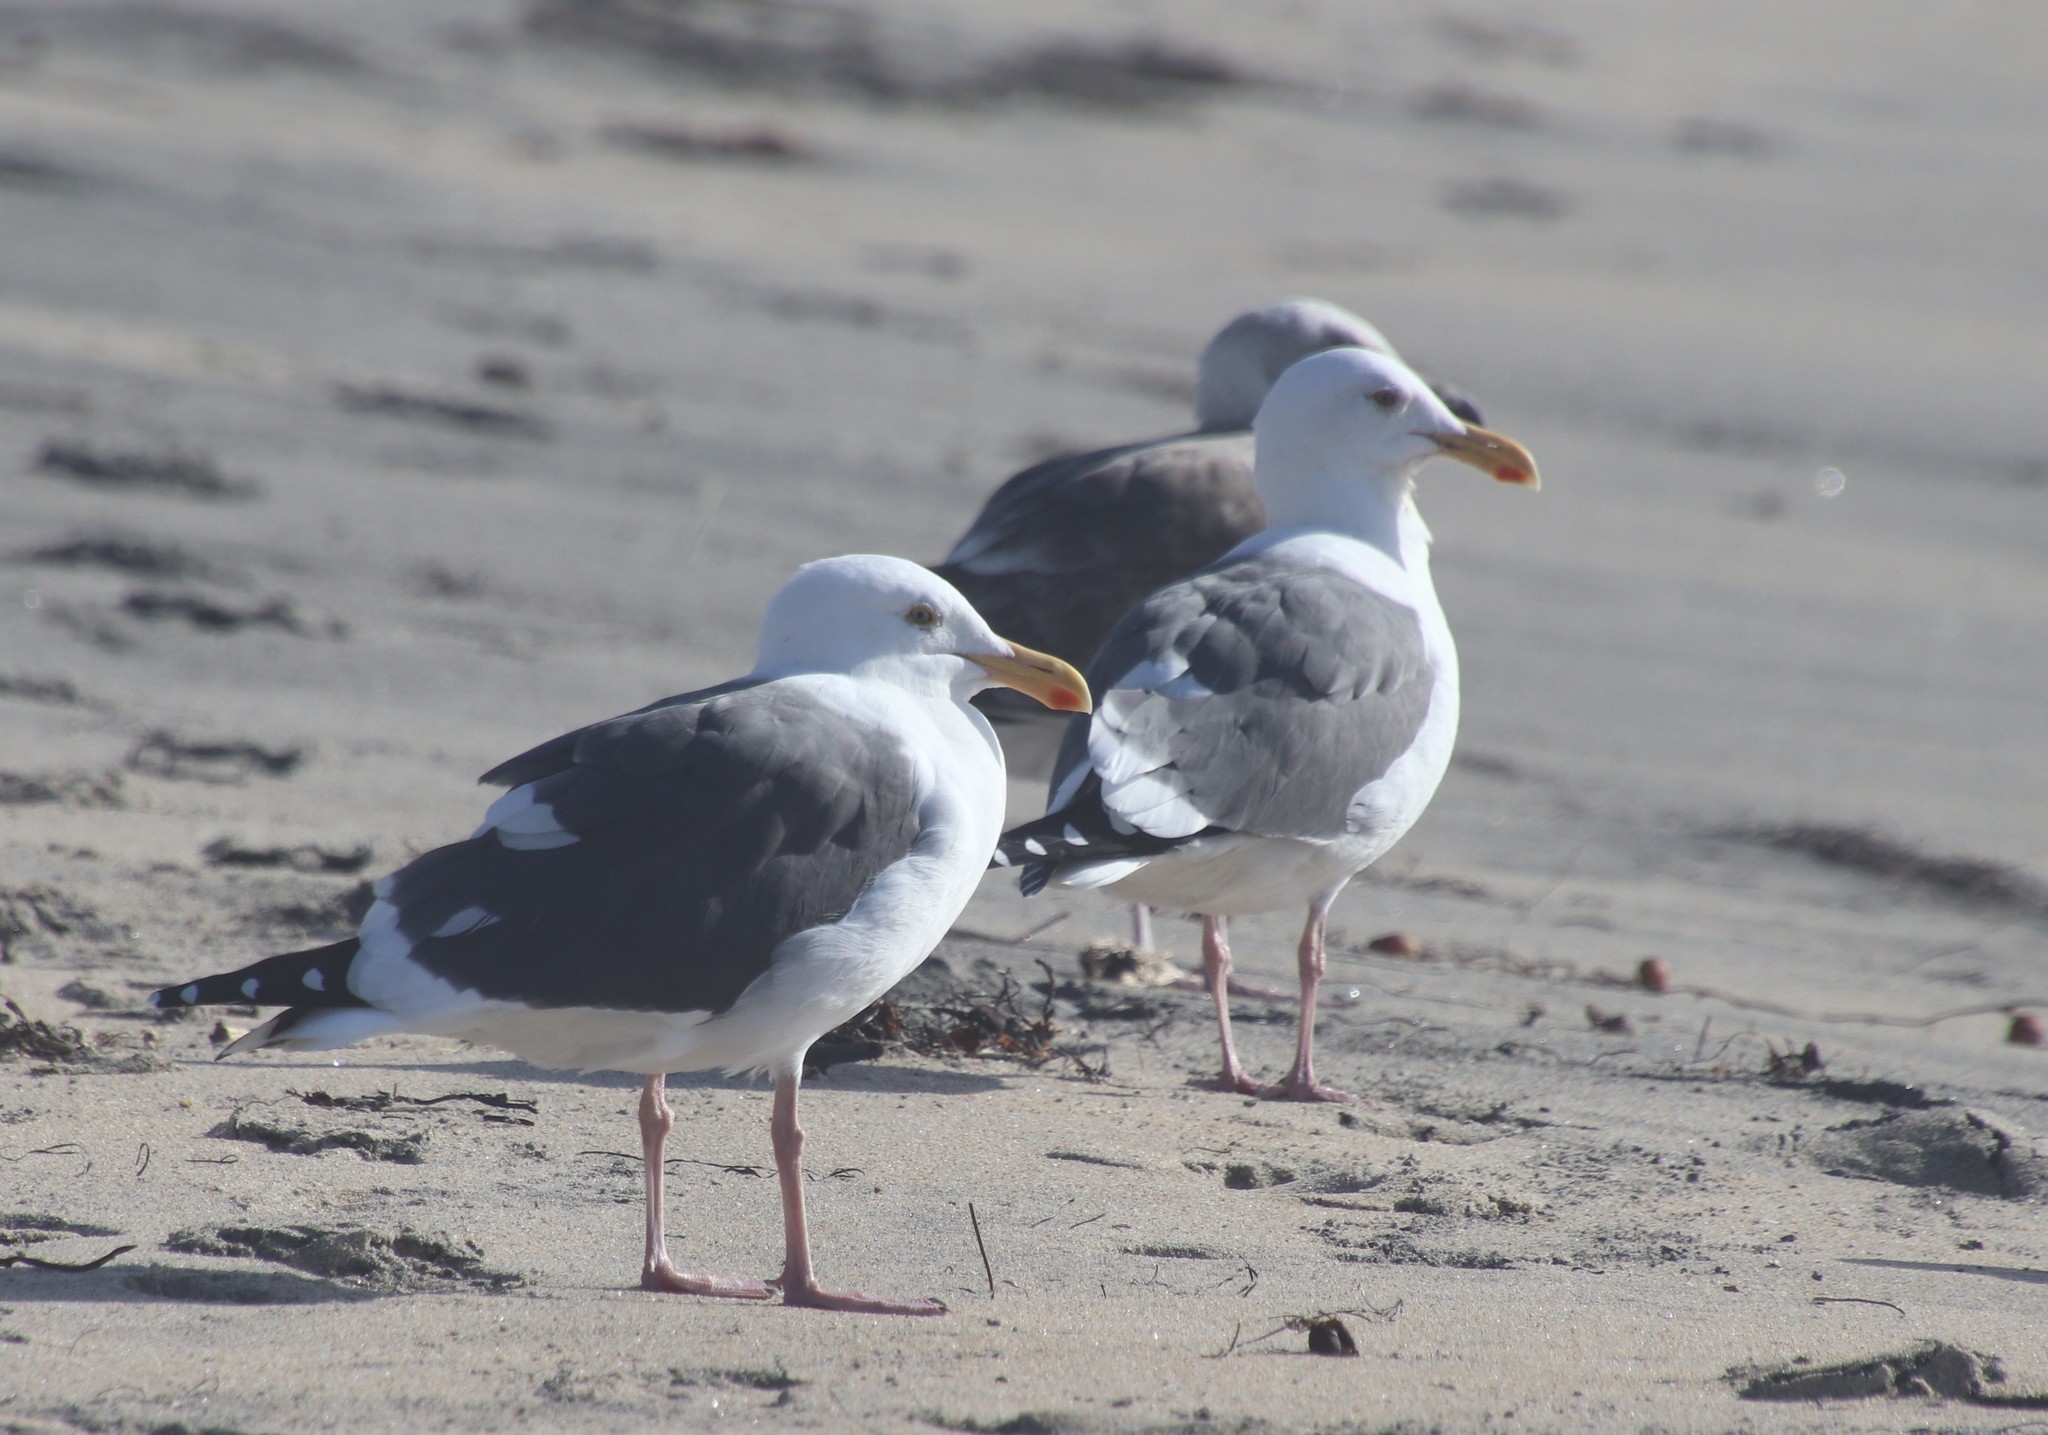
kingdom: Animalia
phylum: Chordata
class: Aves
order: Charadriiformes
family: Laridae
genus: Larus
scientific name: Larus occidentalis
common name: Western gull
